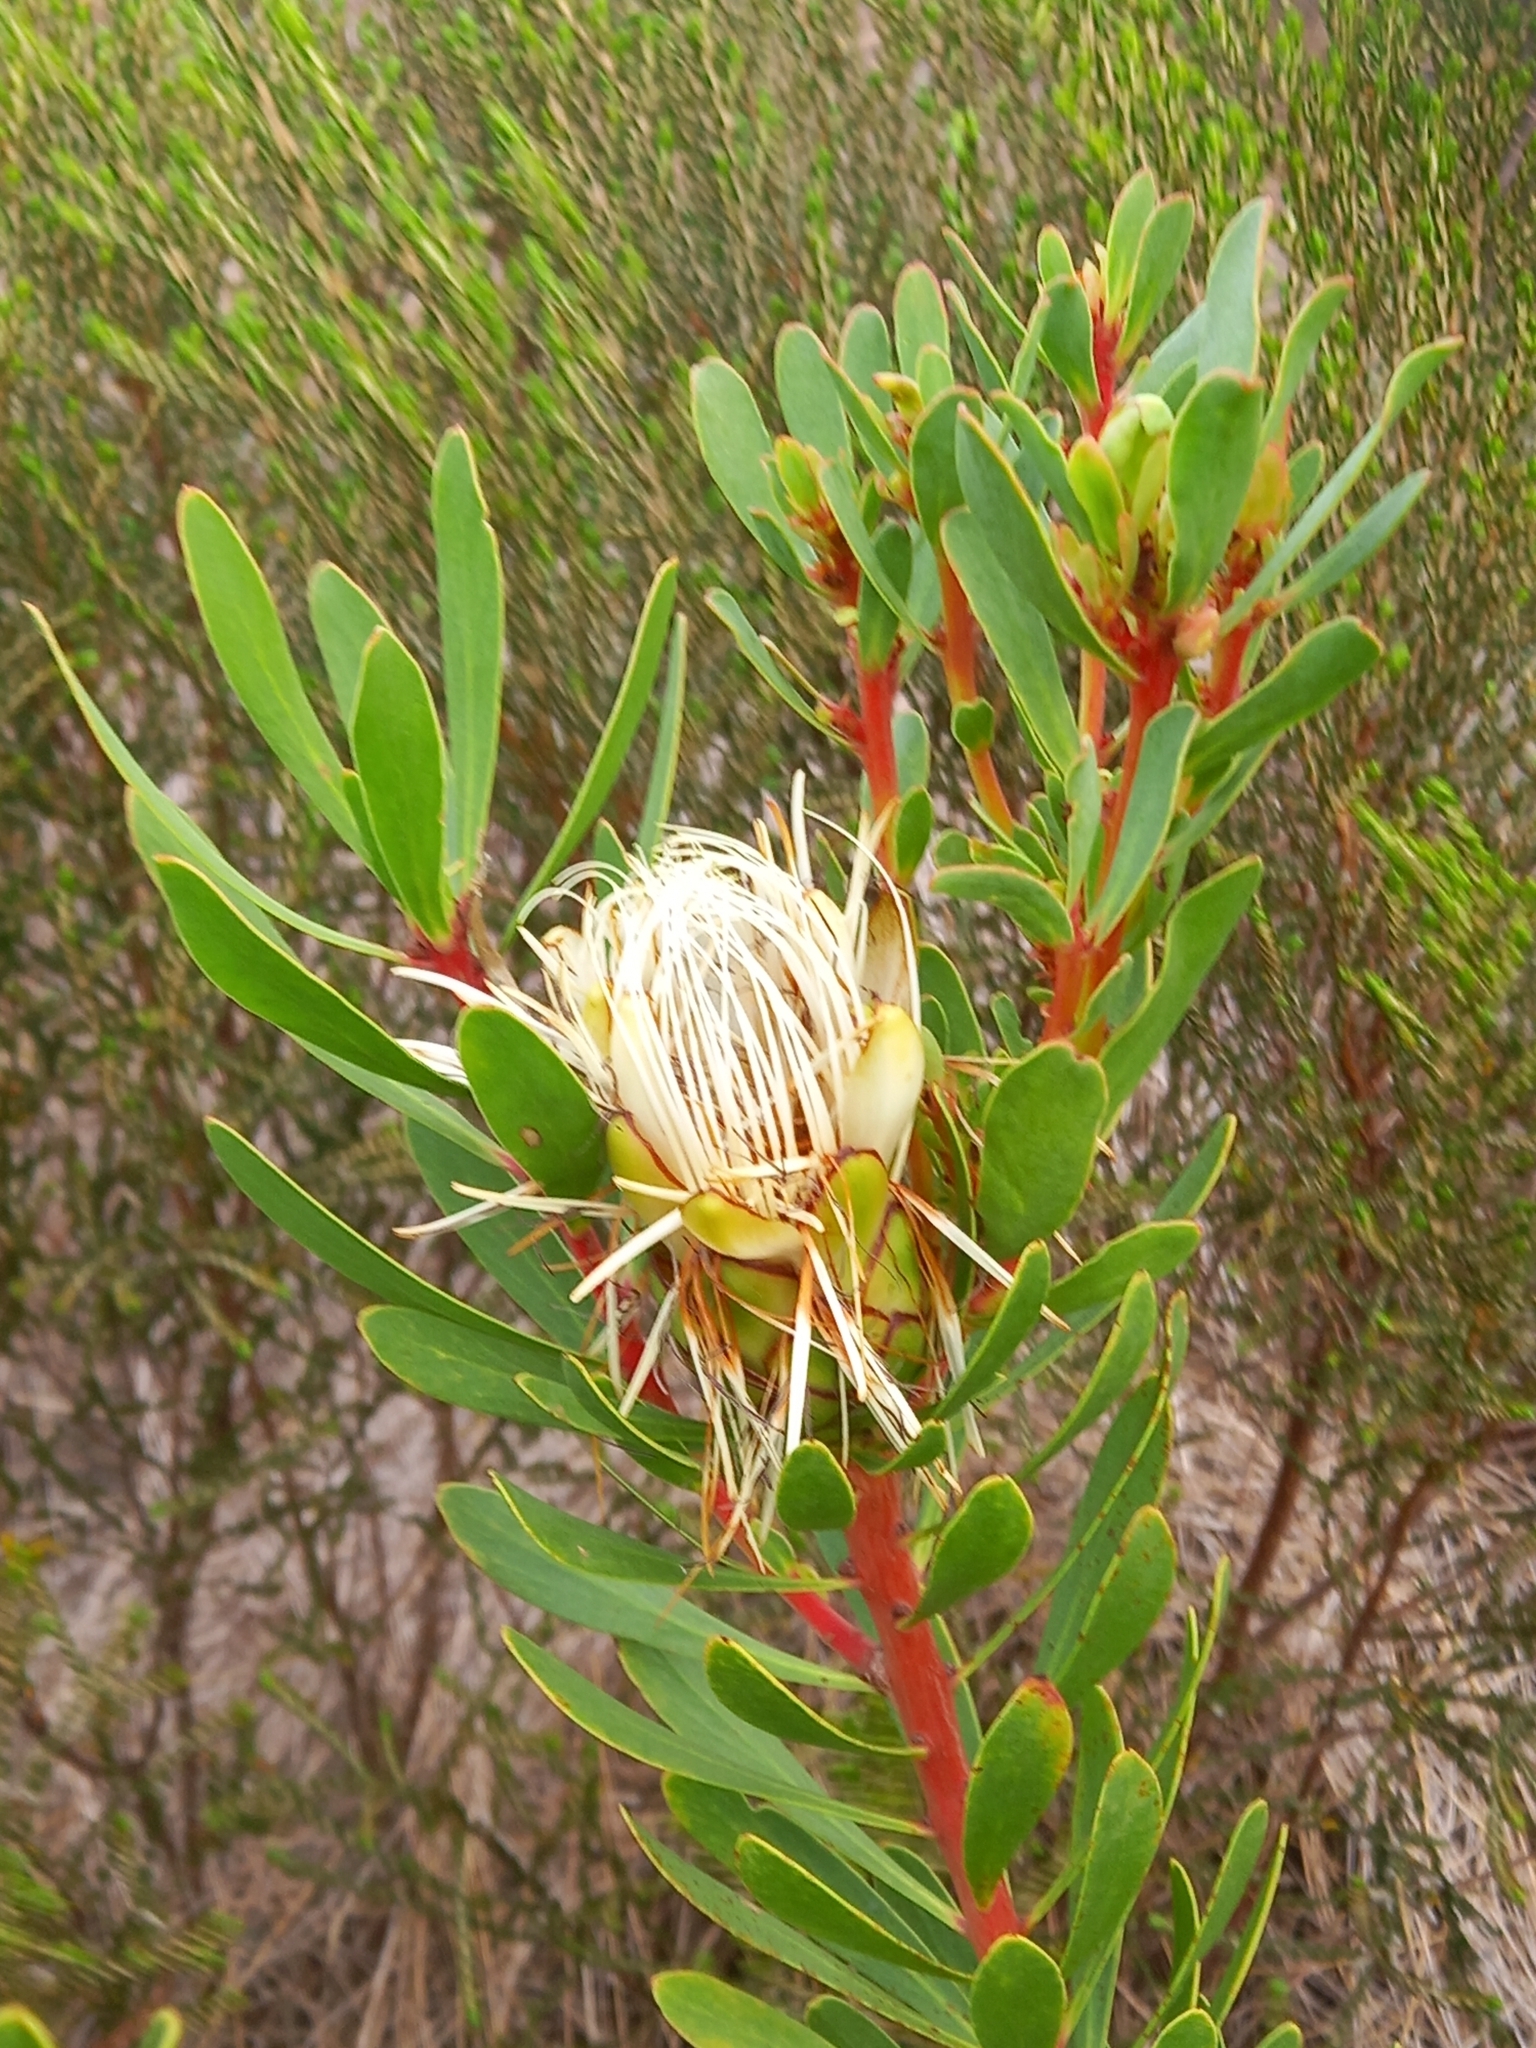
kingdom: Plantae
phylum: Tracheophyta
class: Magnoliopsida
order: Proteales
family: Proteaceae
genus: Protea
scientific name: Protea lanceolata
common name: Lance-leaved protea
